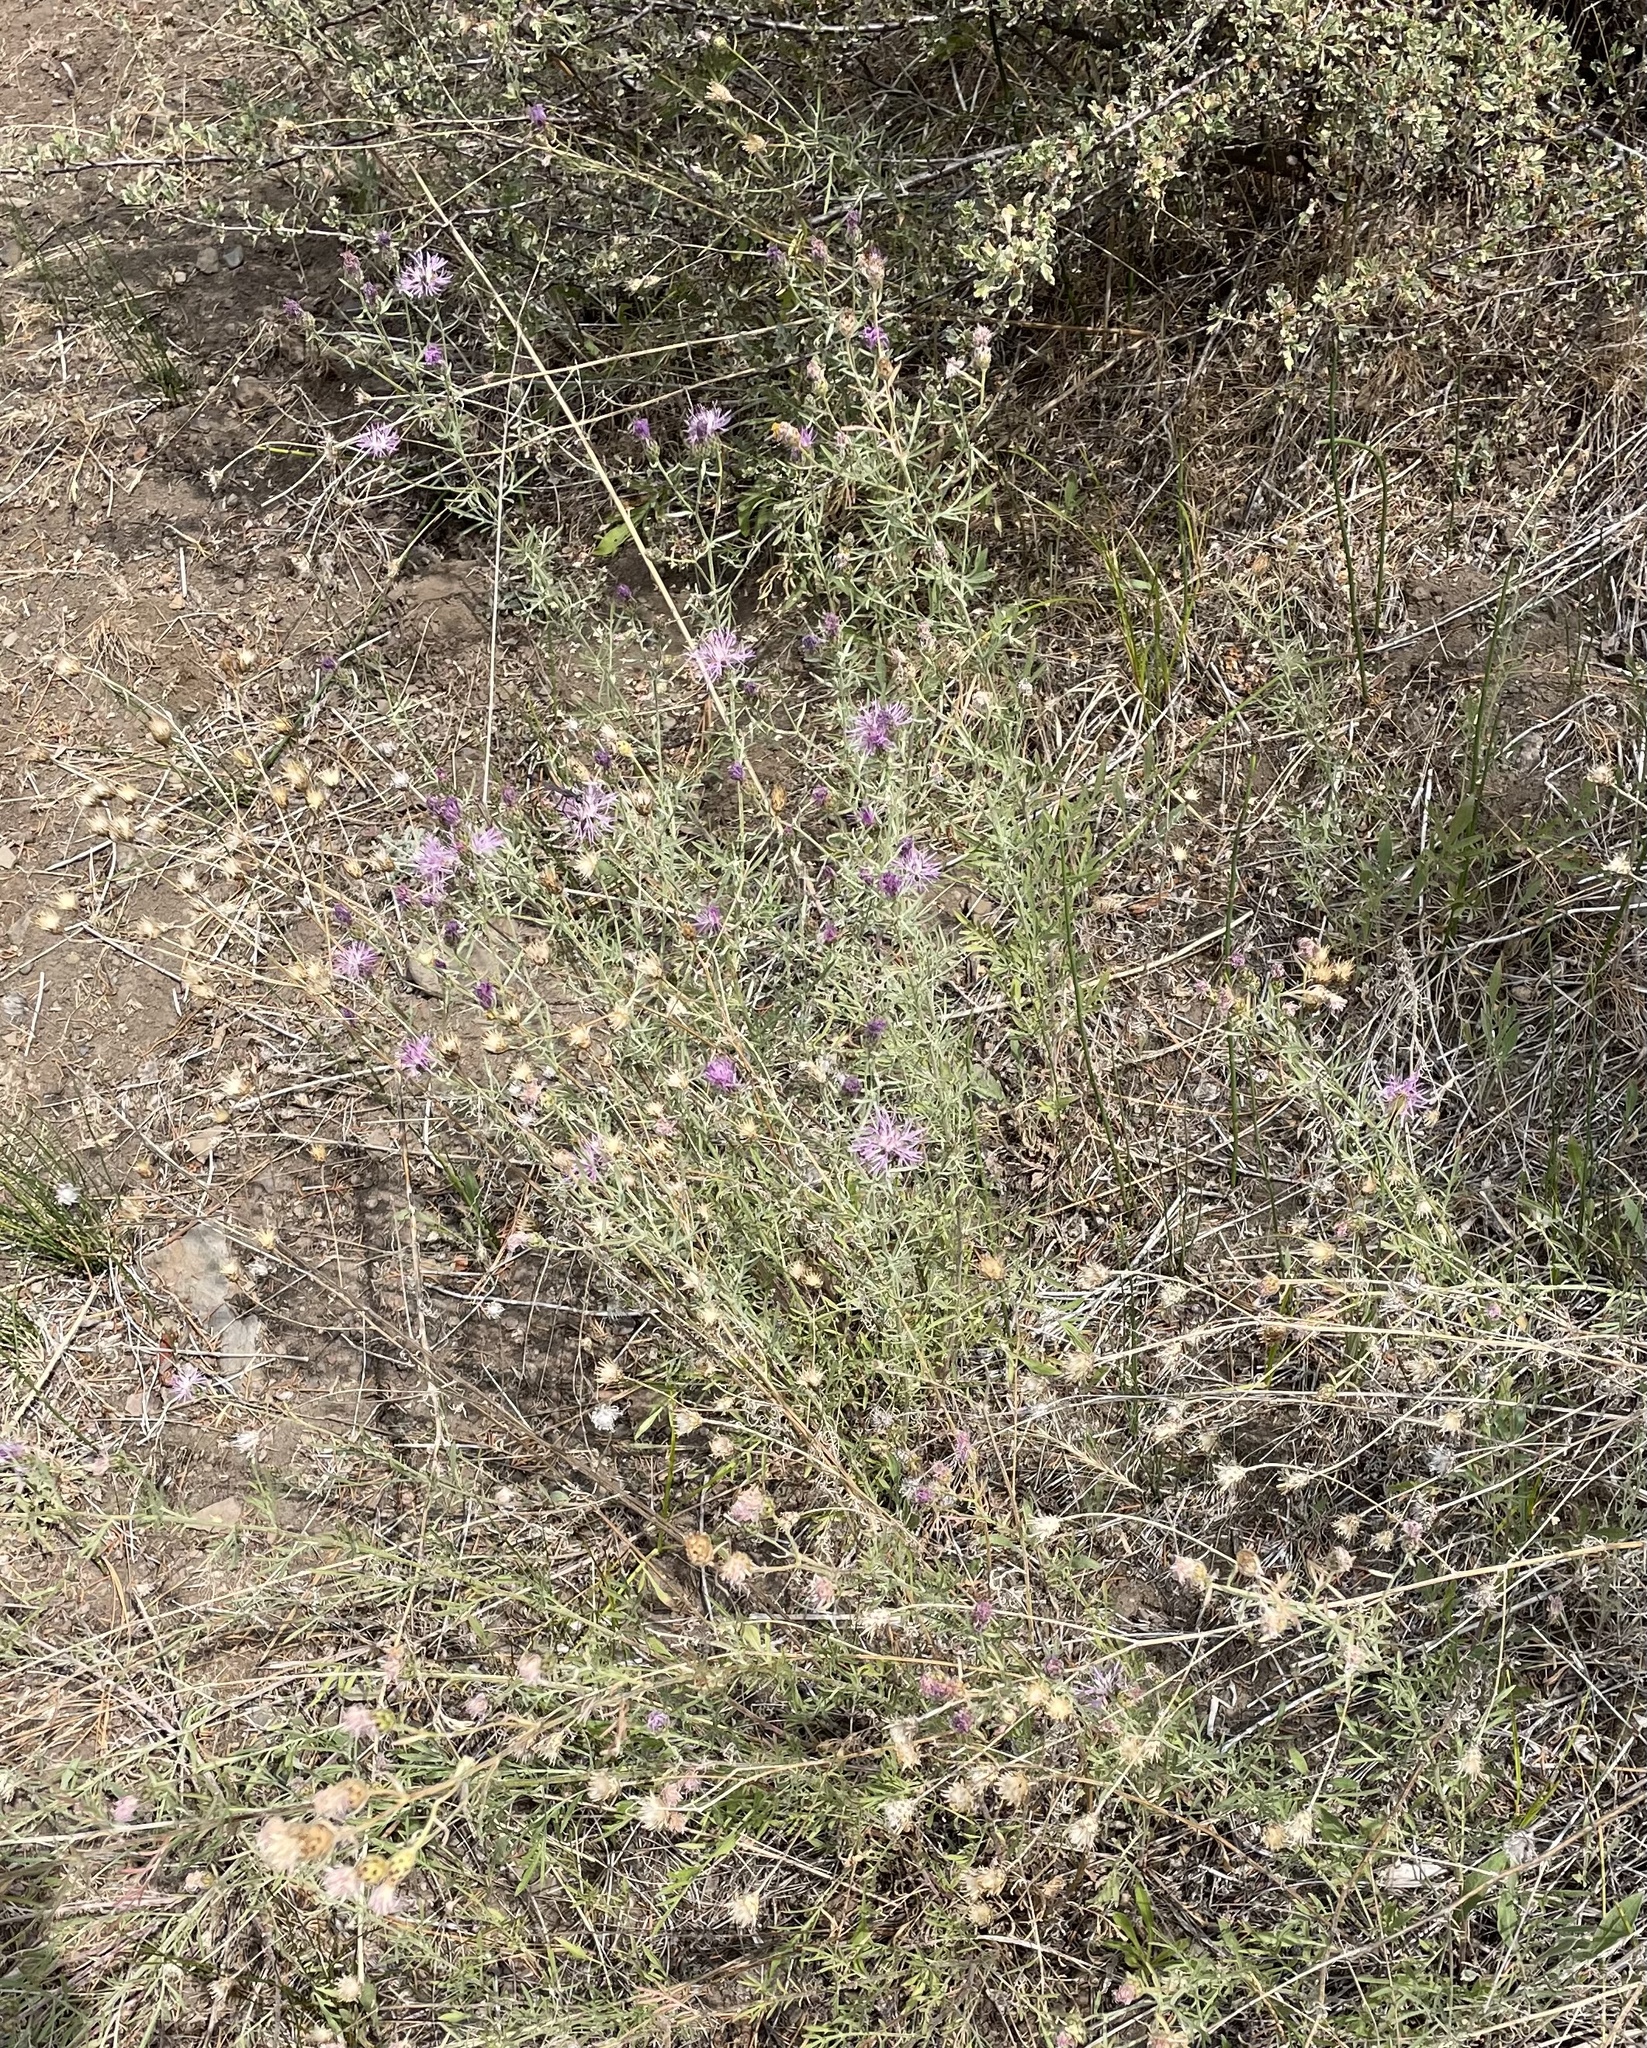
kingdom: Plantae
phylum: Tracheophyta
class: Magnoliopsida
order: Asterales
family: Asteraceae
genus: Centaurea
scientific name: Centaurea stoebe
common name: Spotted knapweed
